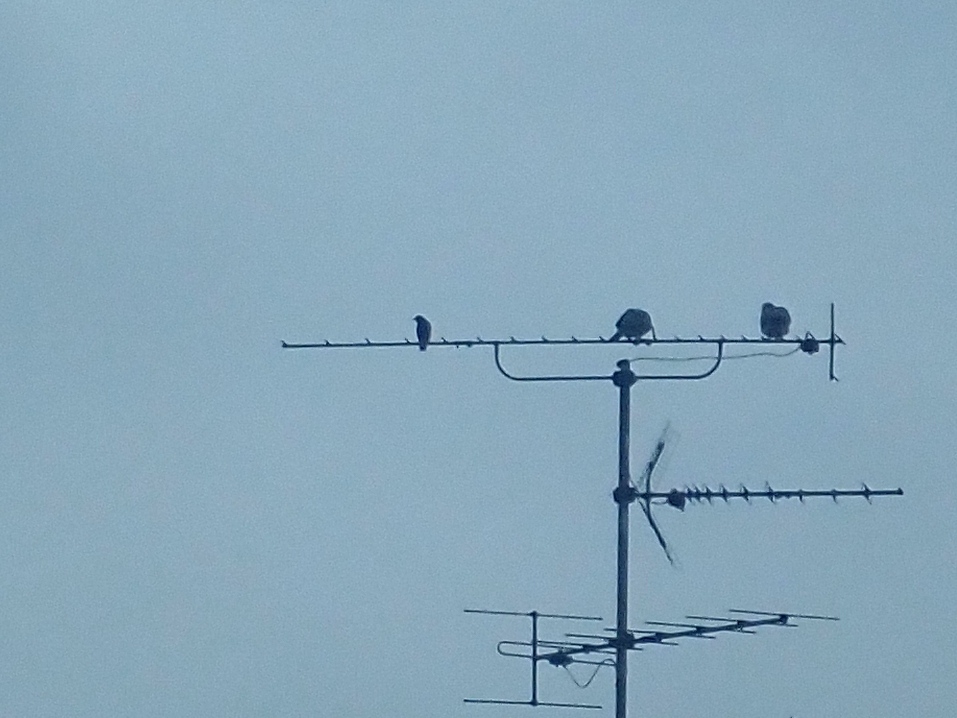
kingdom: Animalia
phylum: Chordata
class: Aves
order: Columbiformes
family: Columbidae
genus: Columba
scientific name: Columba palumbus
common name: Common wood pigeon
